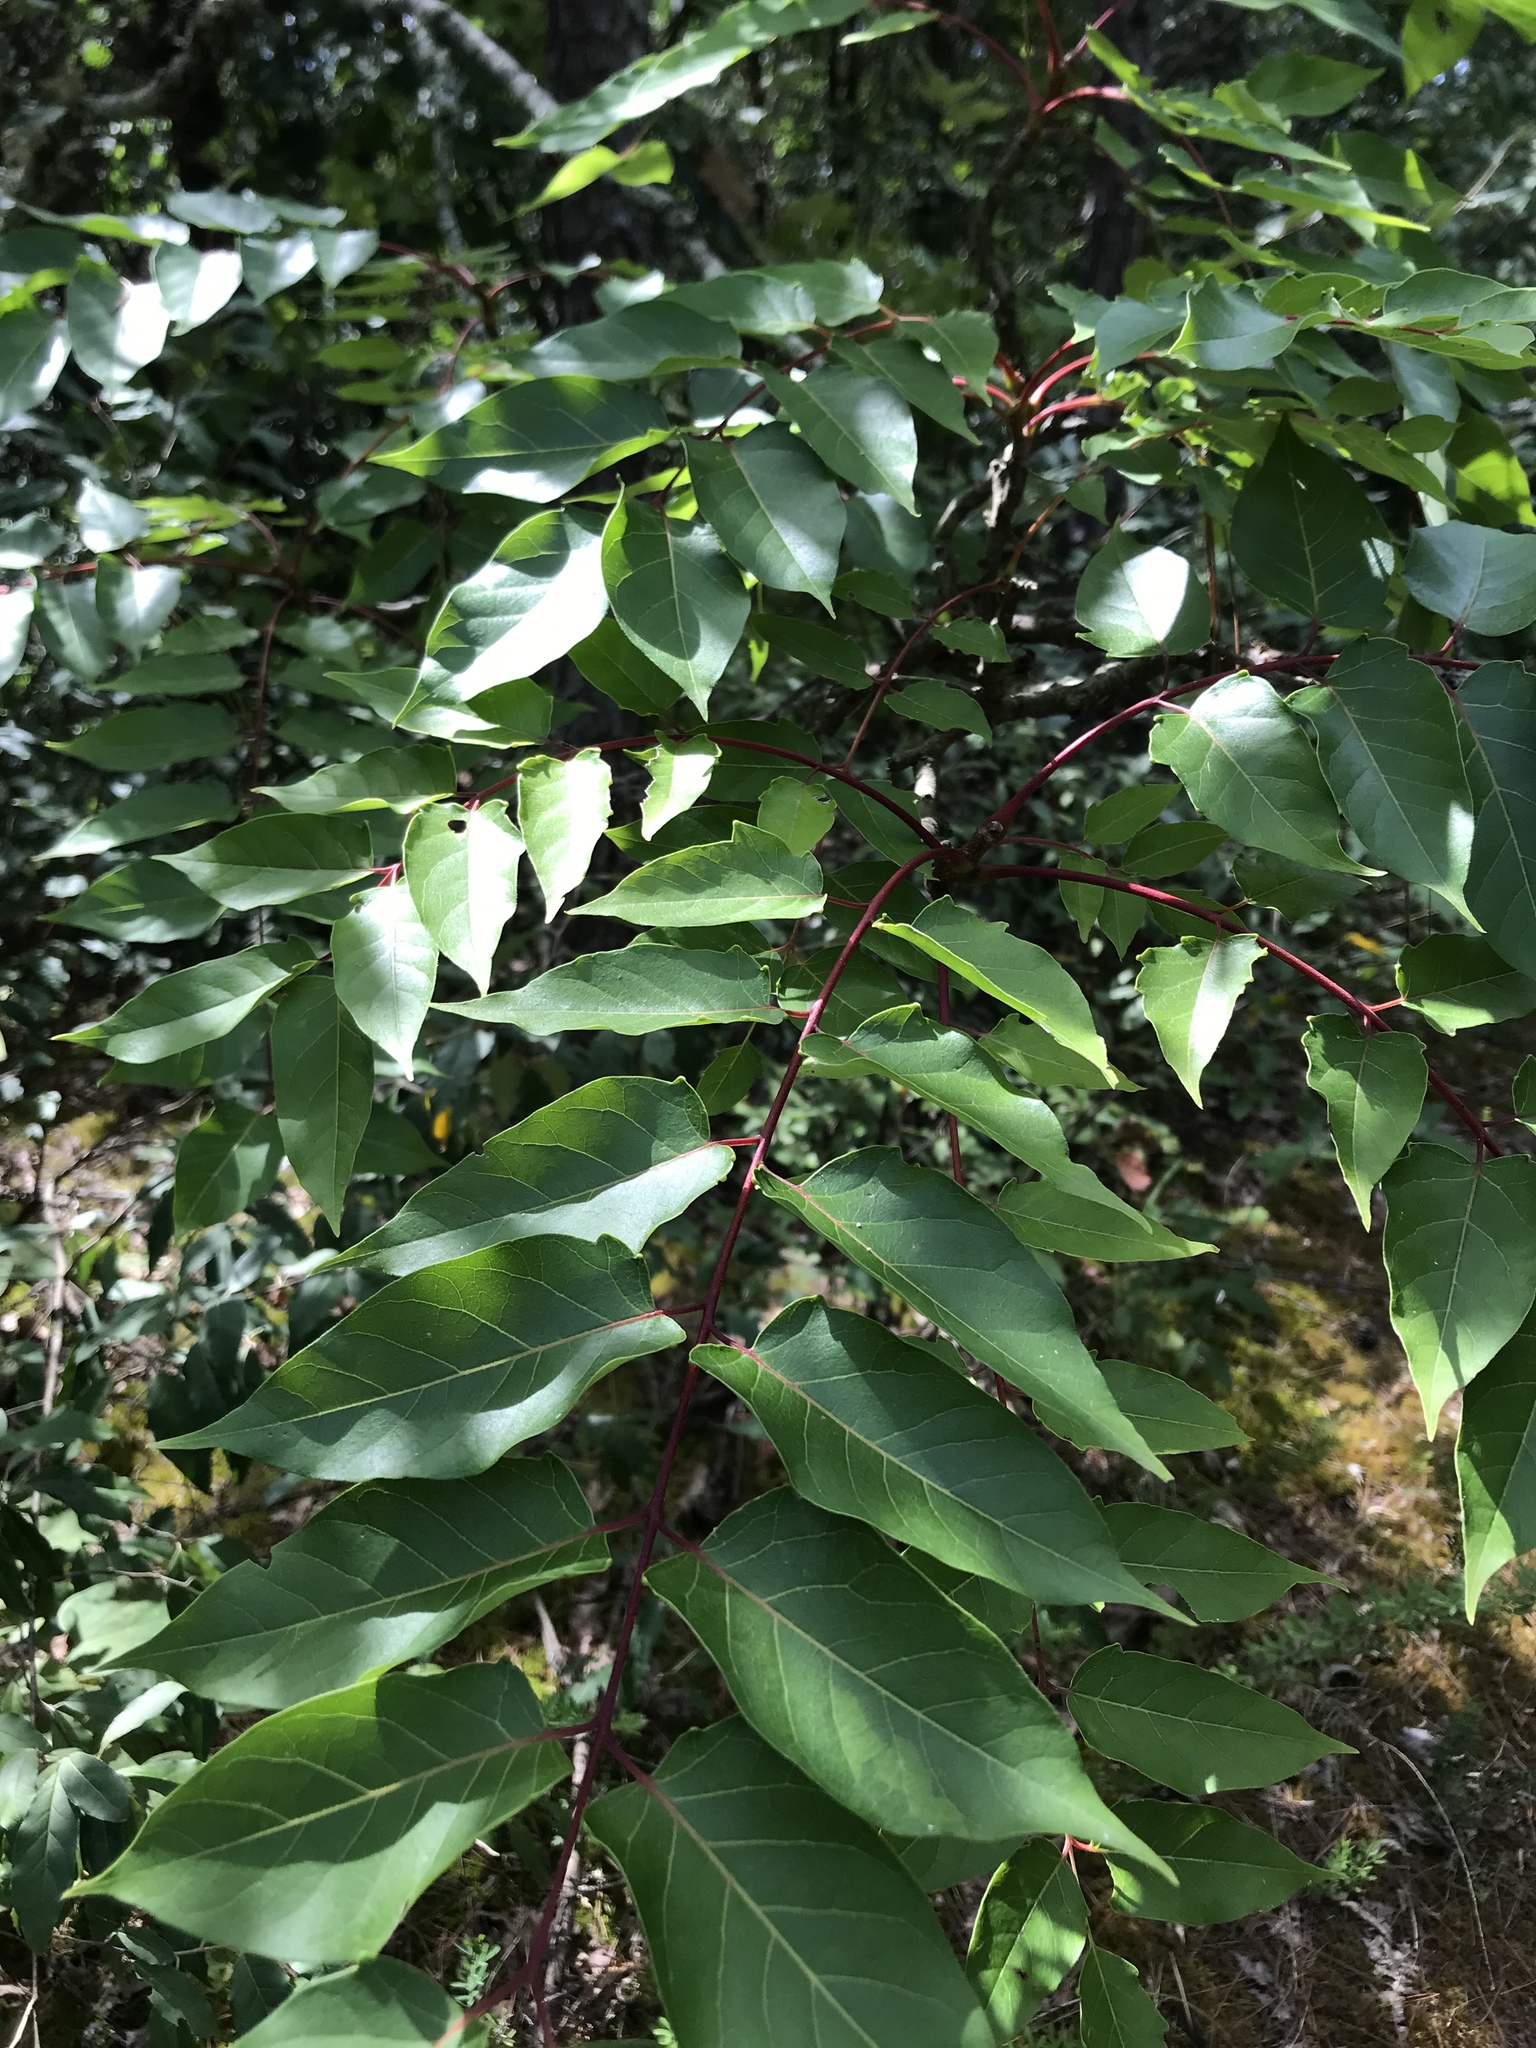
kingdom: Plantae
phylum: Tracheophyta
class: Magnoliopsida
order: Sapindales
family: Simaroubaceae
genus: Ailanthus
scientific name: Ailanthus altissima
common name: Tree-of-heaven
